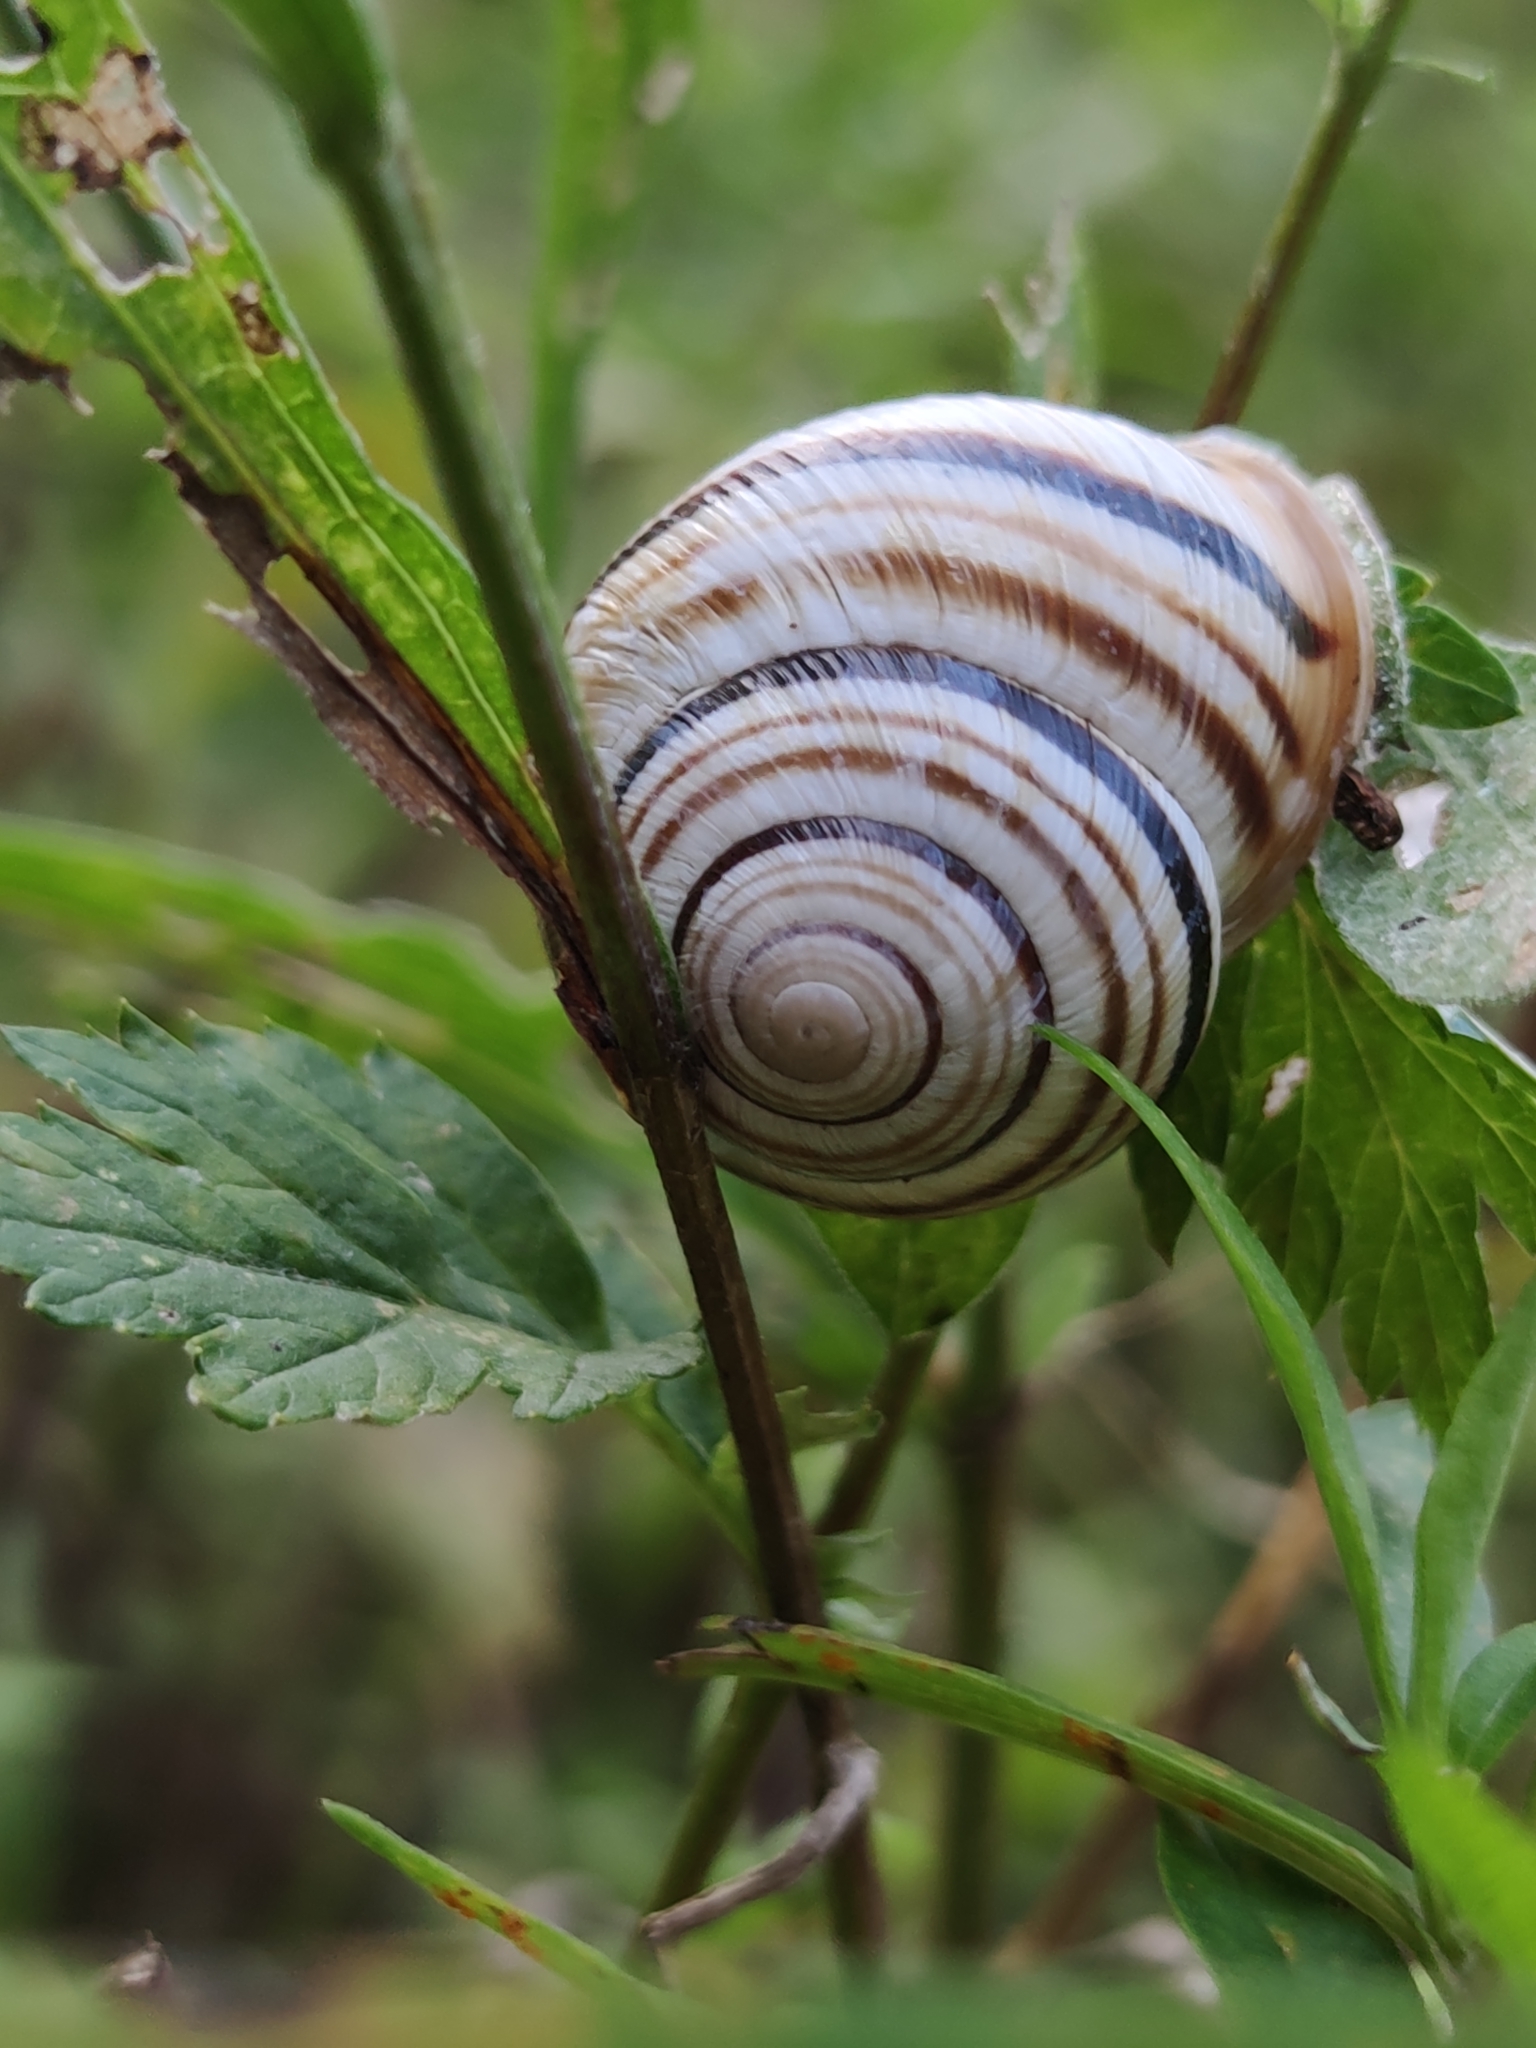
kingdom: Animalia
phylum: Mollusca
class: Gastropoda
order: Stylommatophora
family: Helicidae
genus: Caucasotachea
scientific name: Caucasotachea vindobonensis
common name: European helicid land snail
